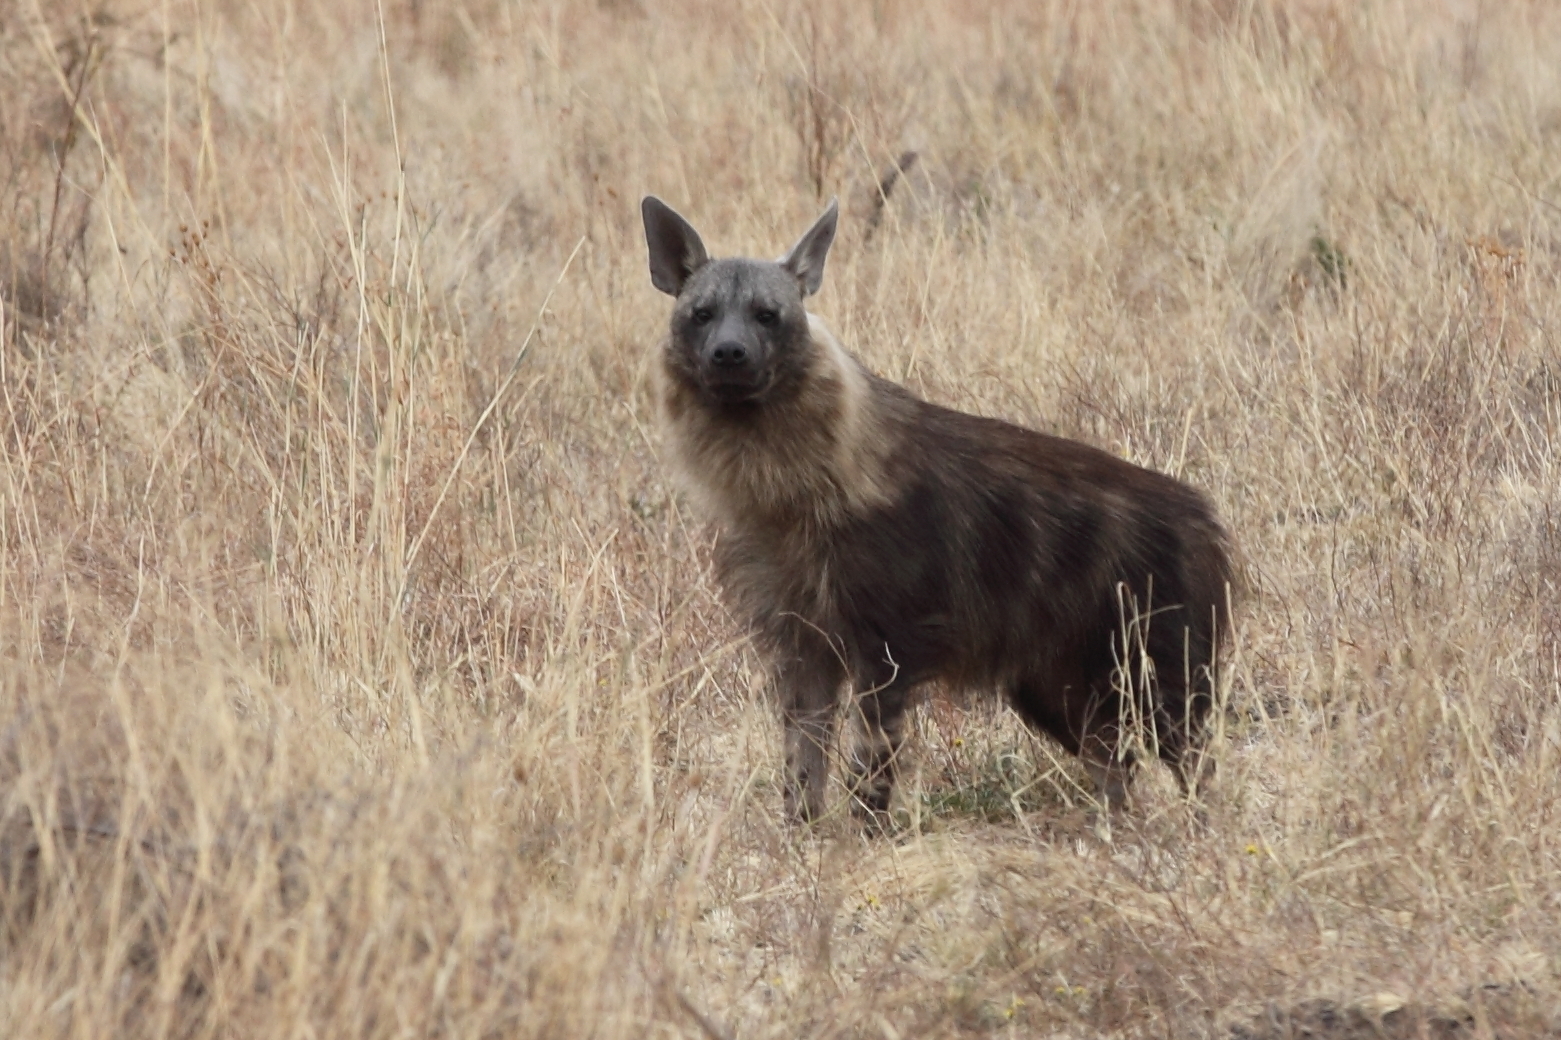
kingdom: Animalia
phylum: Chordata
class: Mammalia
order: Carnivora
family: Hyaenidae
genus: Hyaena
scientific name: Hyaena brunnea
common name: Brown hyena
